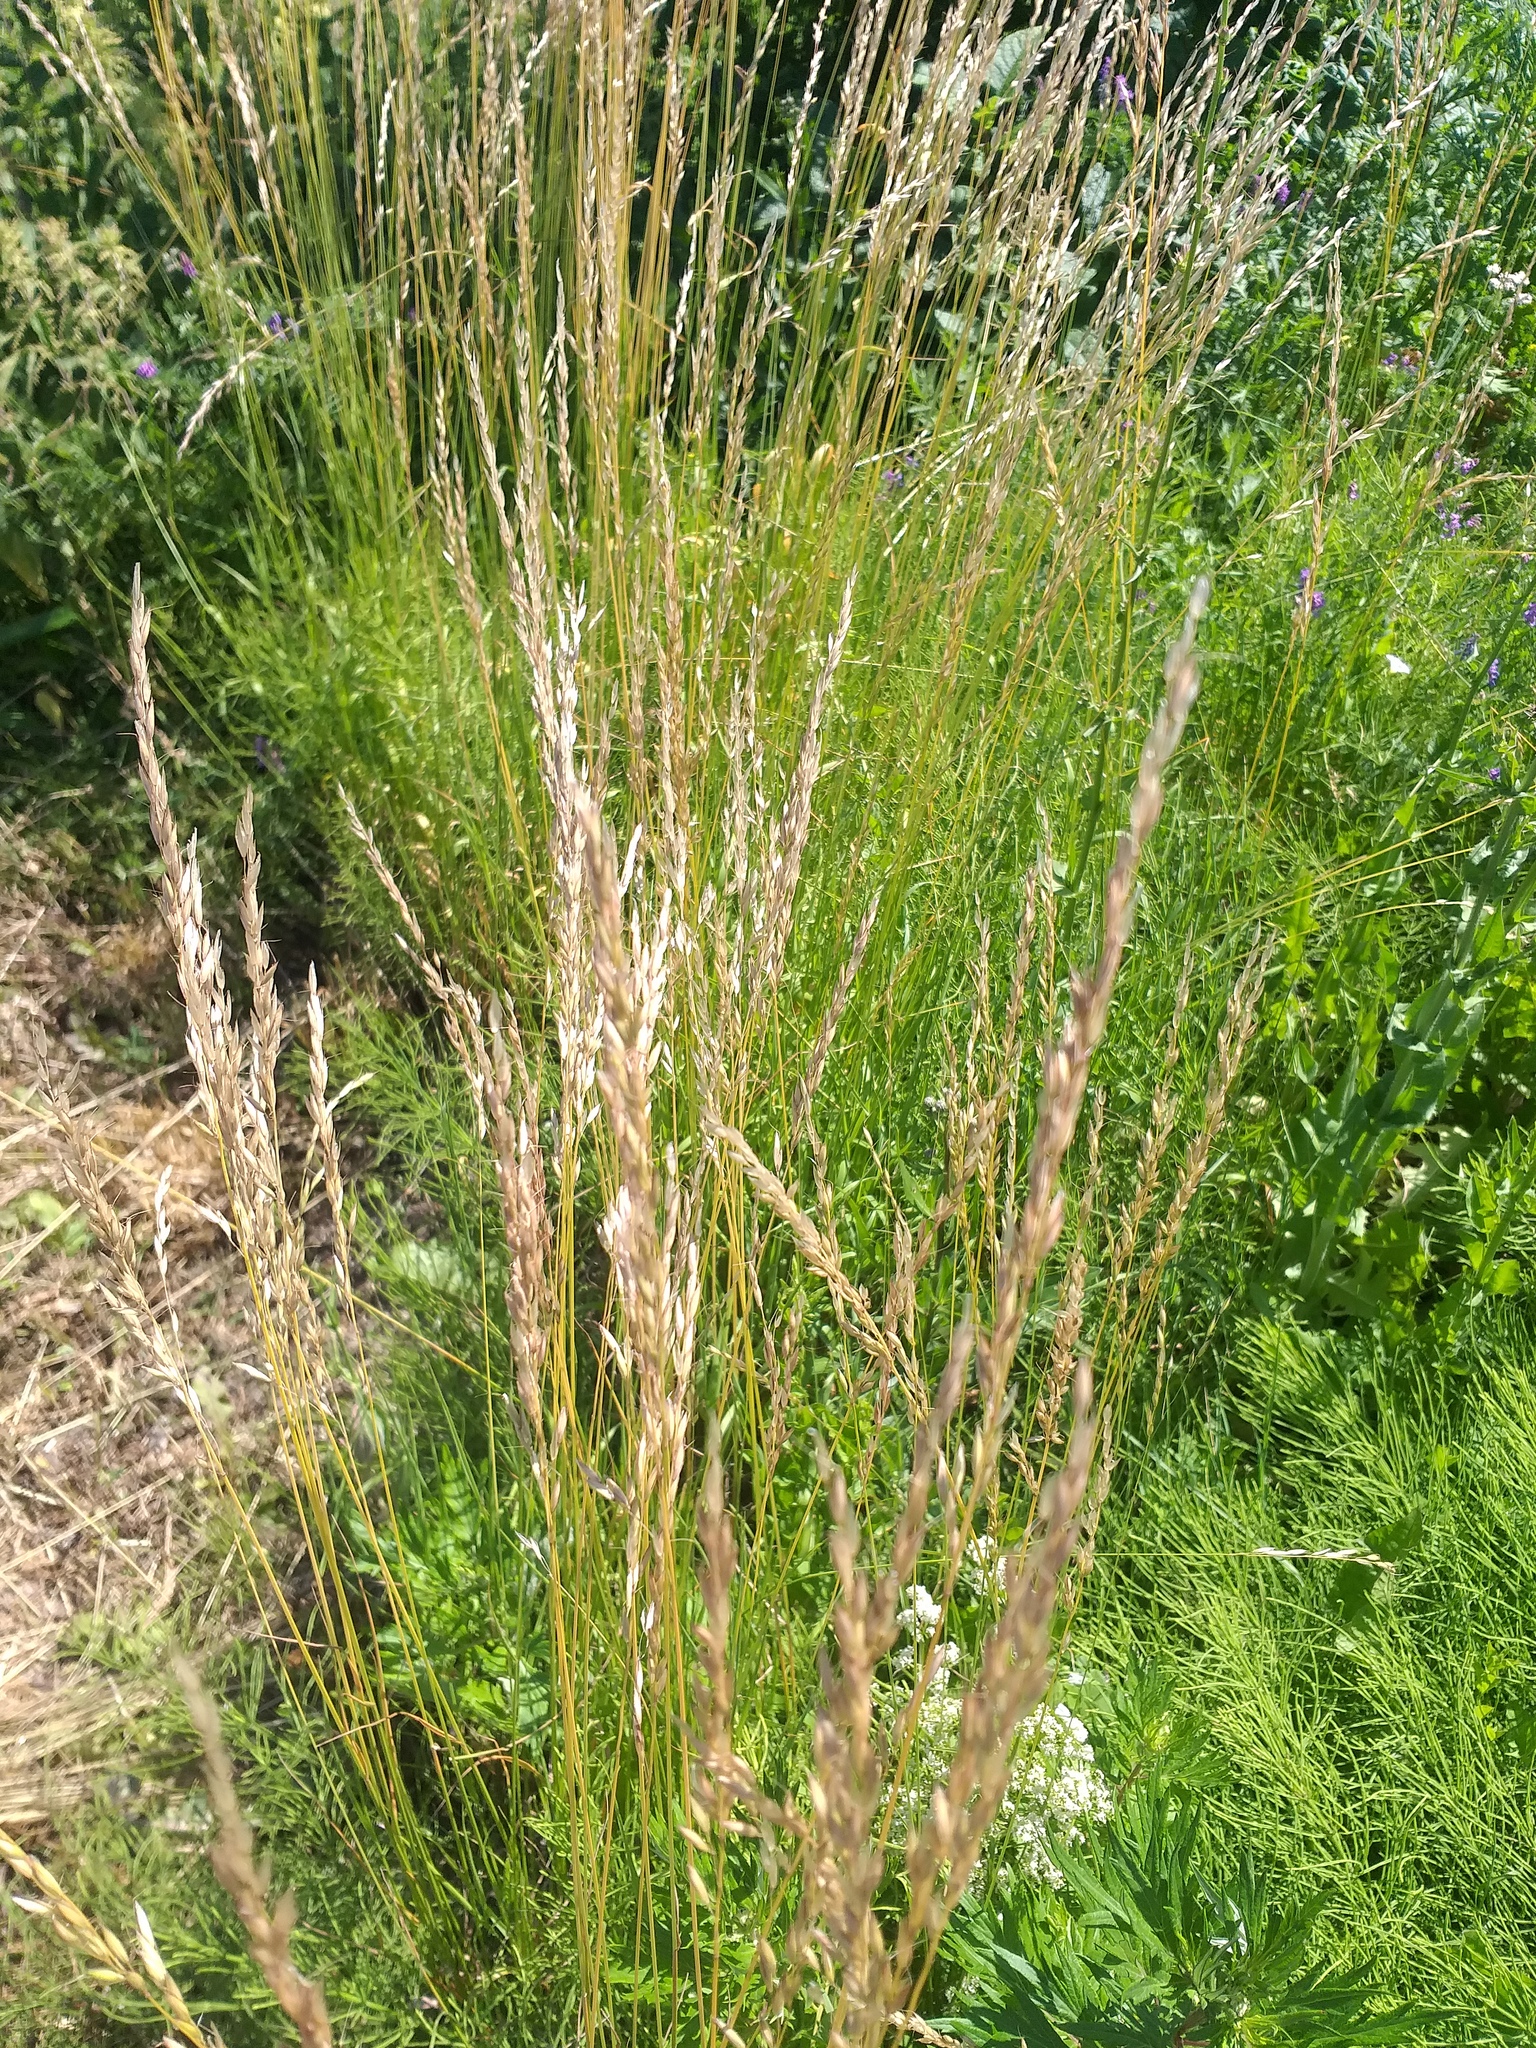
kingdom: Plantae
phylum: Tracheophyta
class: Liliopsida
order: Poales
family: Poaceae
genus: Arrhenatherum
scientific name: Arrhenatherum elatius
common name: Tall oatgrass
